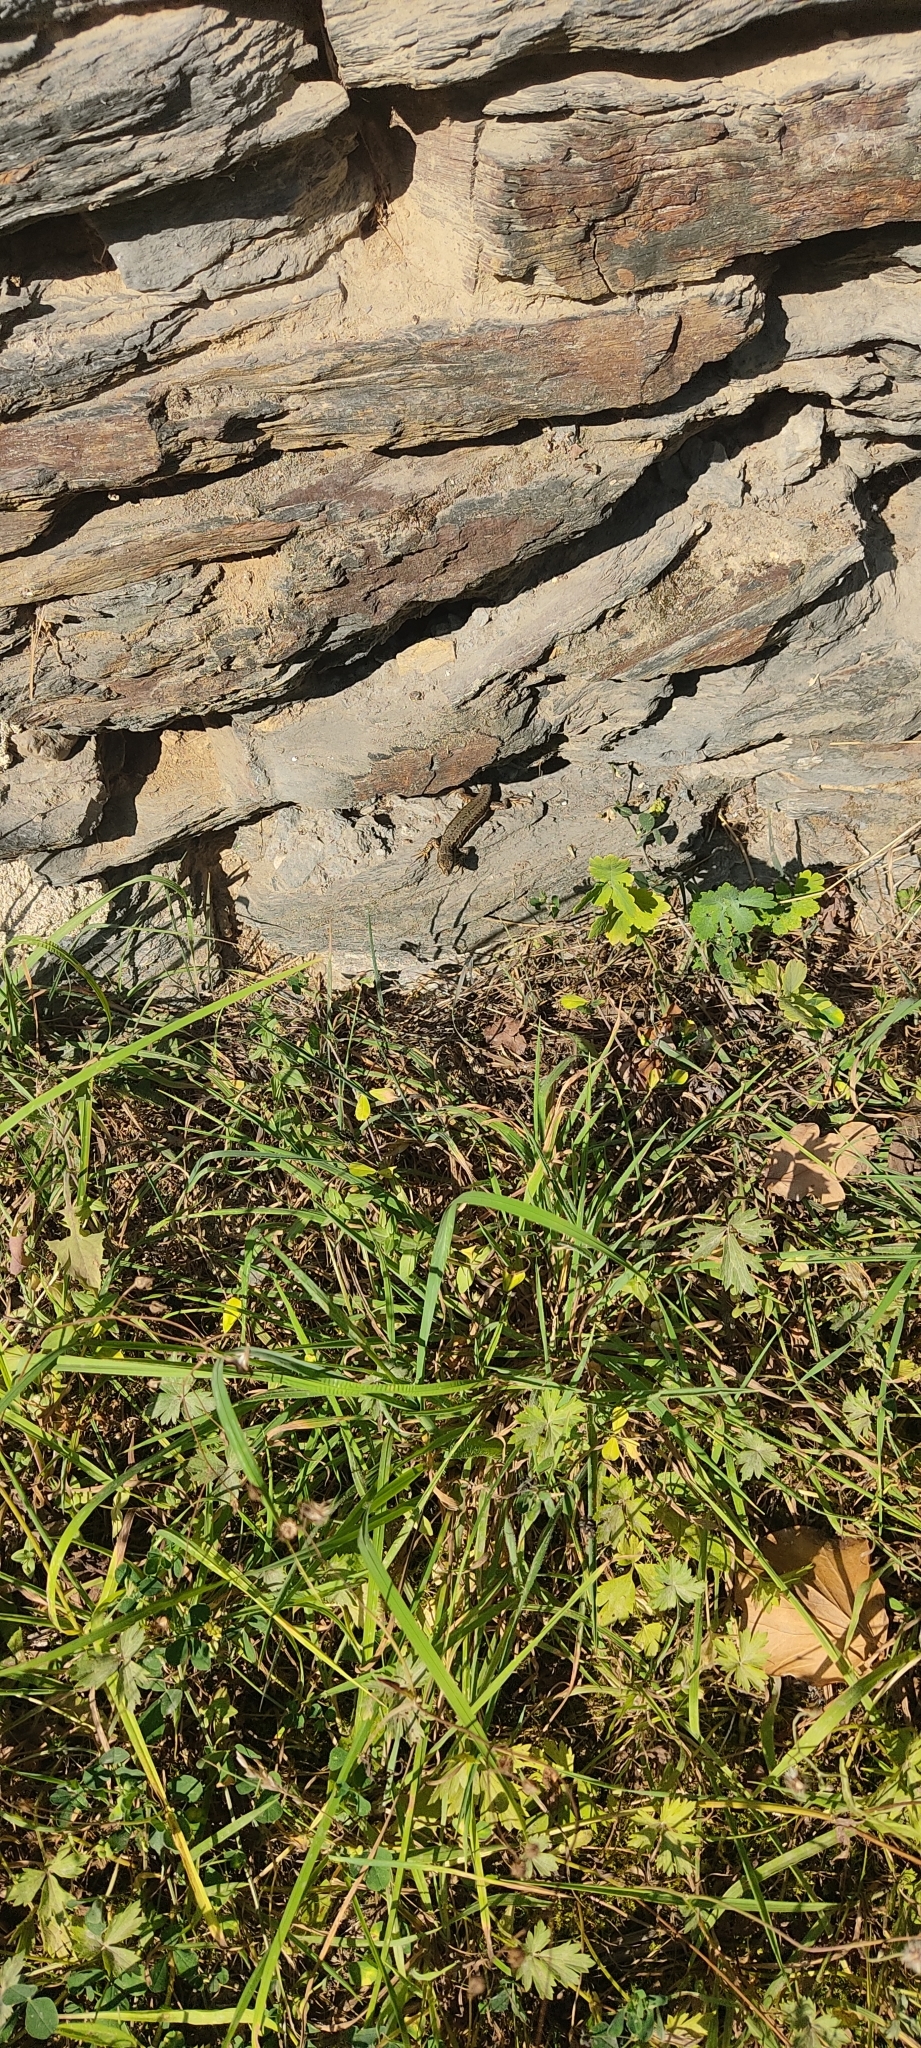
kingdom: Animalia
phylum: Chordata
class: Squamata
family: Lacertidae
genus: Podarcis
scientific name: Podarcis muralis
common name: Common wall lizard
